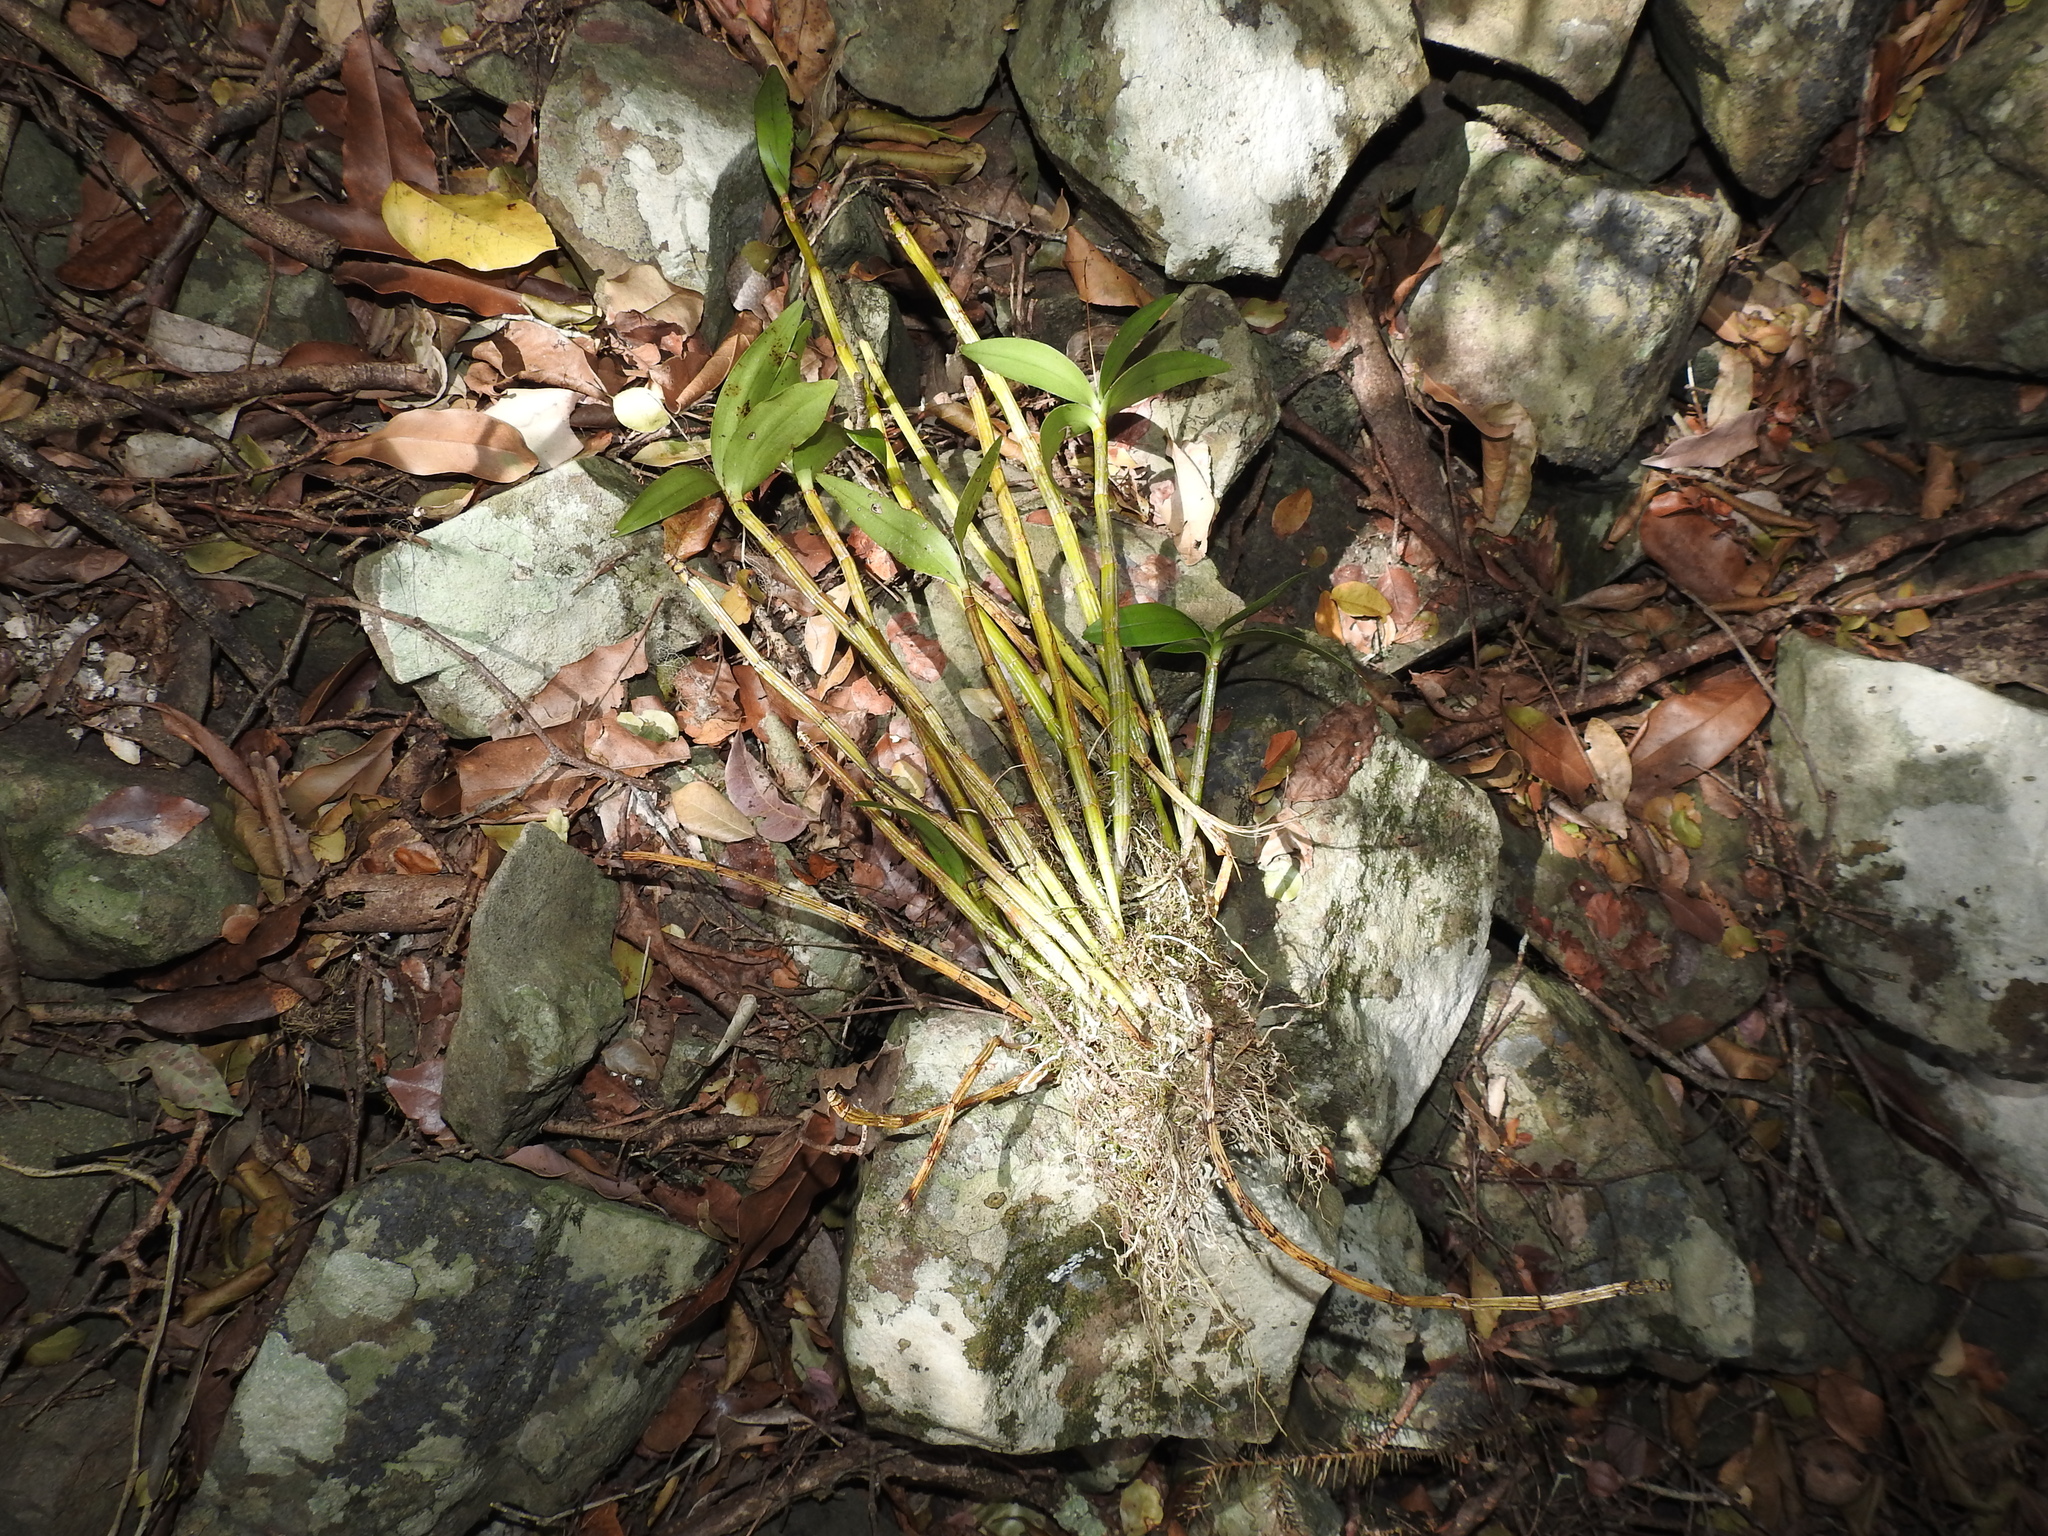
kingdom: Plantae
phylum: Tracheophyta
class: Liliopsida
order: Asparagales
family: Orchidaceae
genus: Dendrobium
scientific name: Dendrobium gracilicaule
